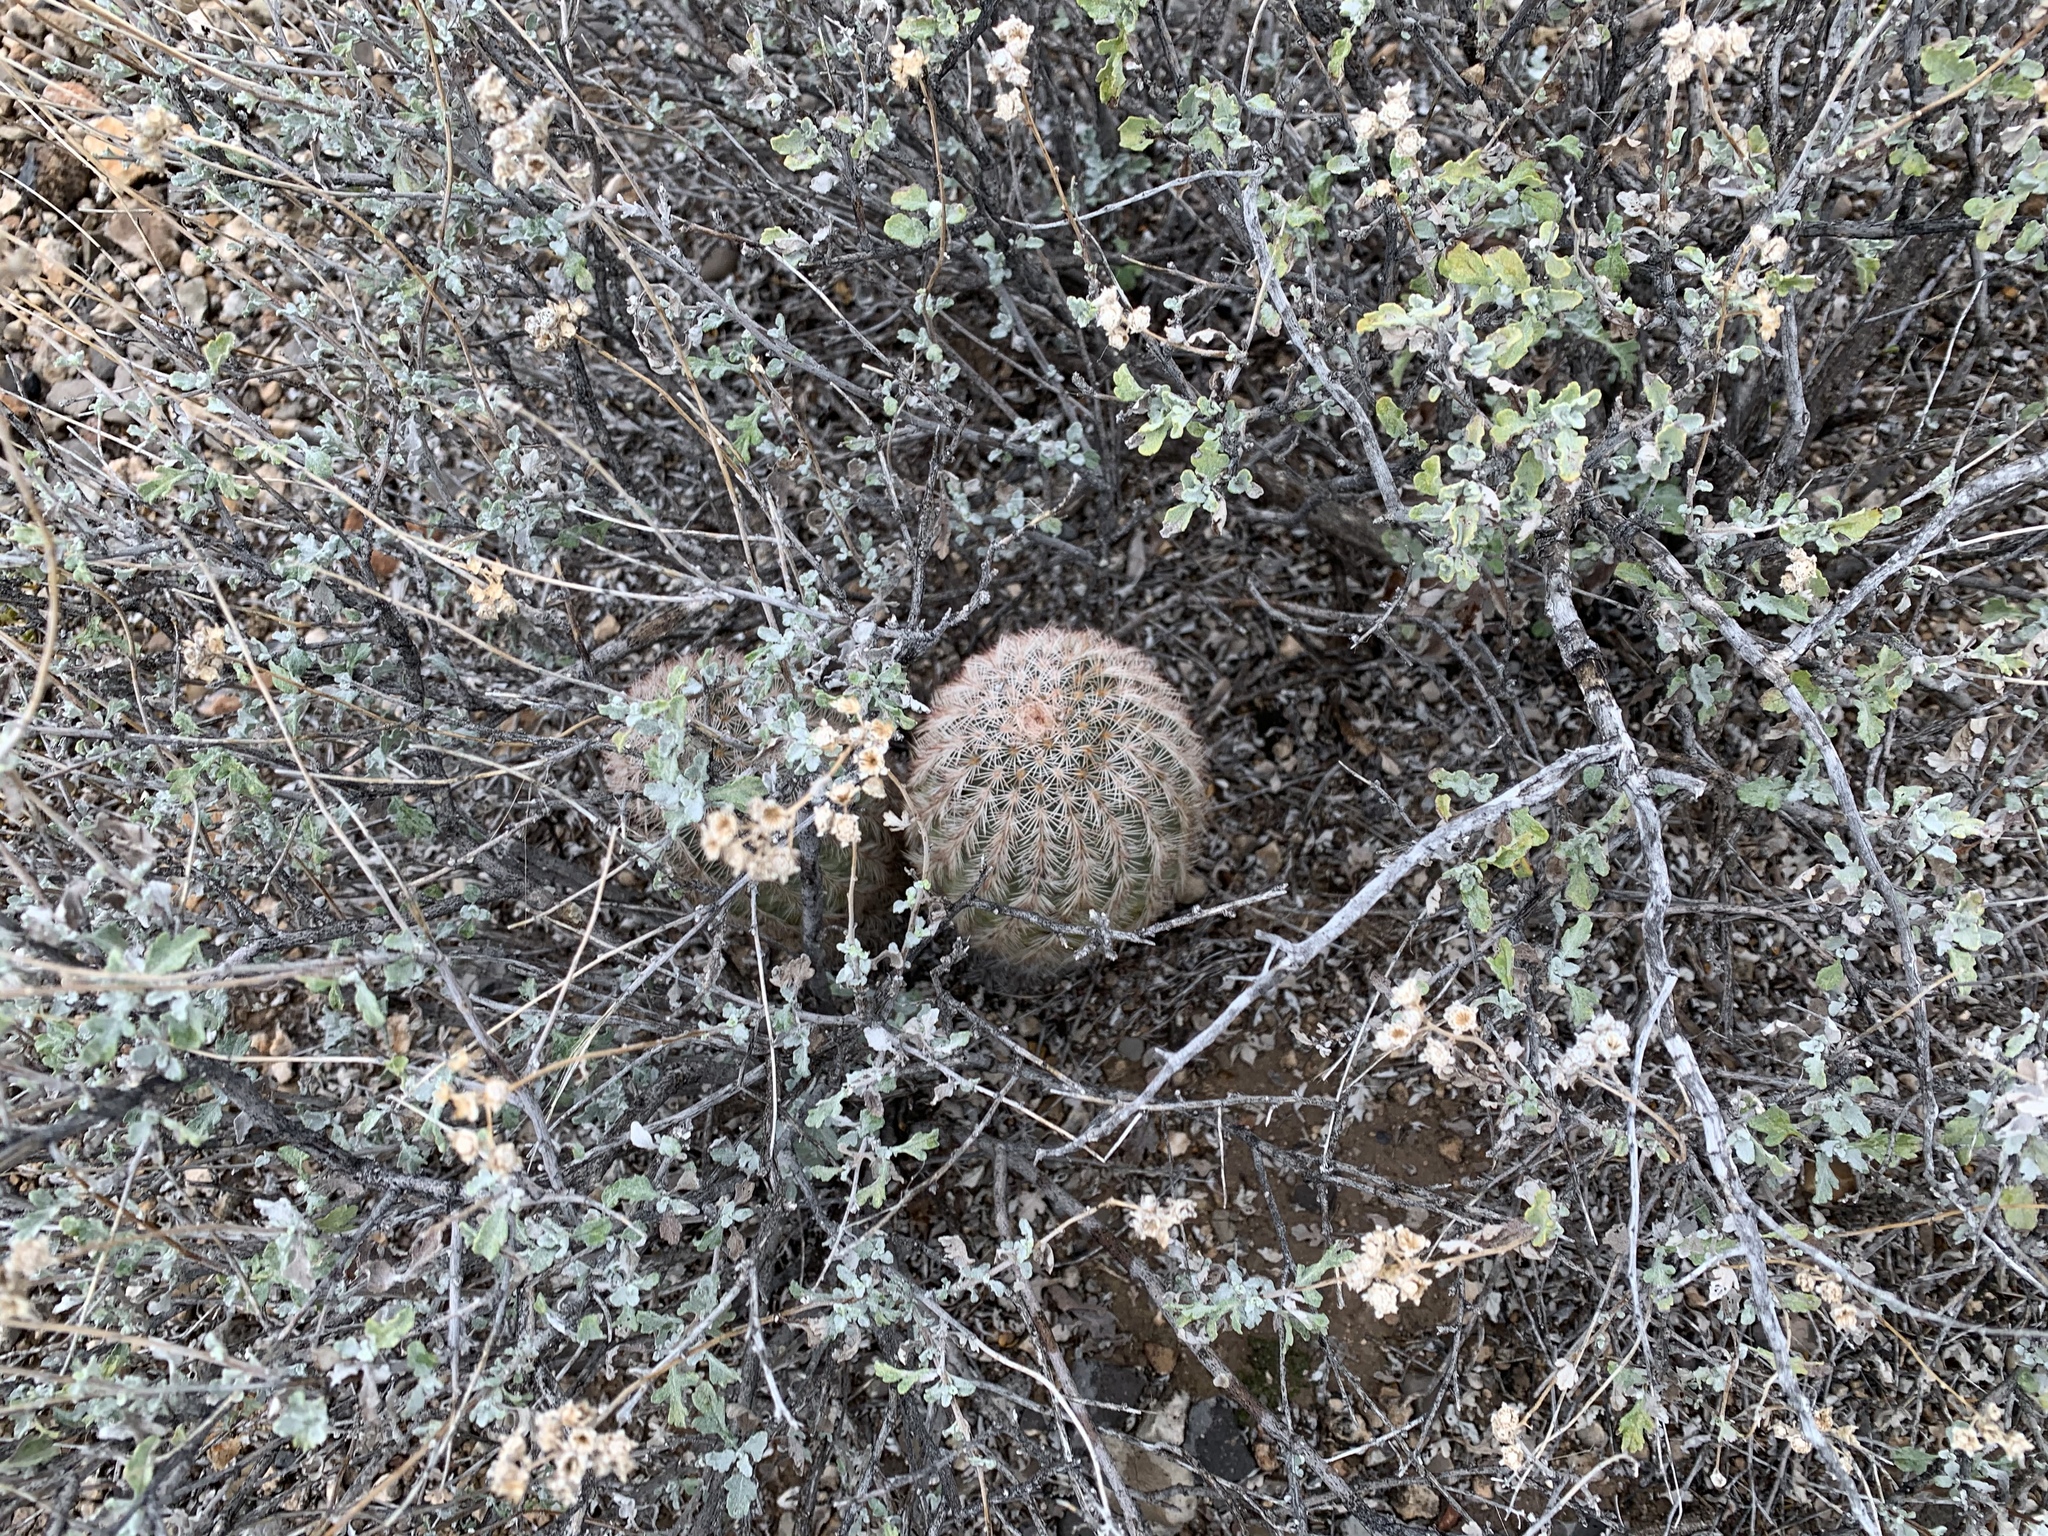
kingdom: Plantae
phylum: Tracheophyta
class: Magnoliopsida
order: Caryophyllales
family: Cactaceae
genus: Echinocereus
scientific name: Echinocereus dasyacanthus
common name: Spiny hedgehog cactus
